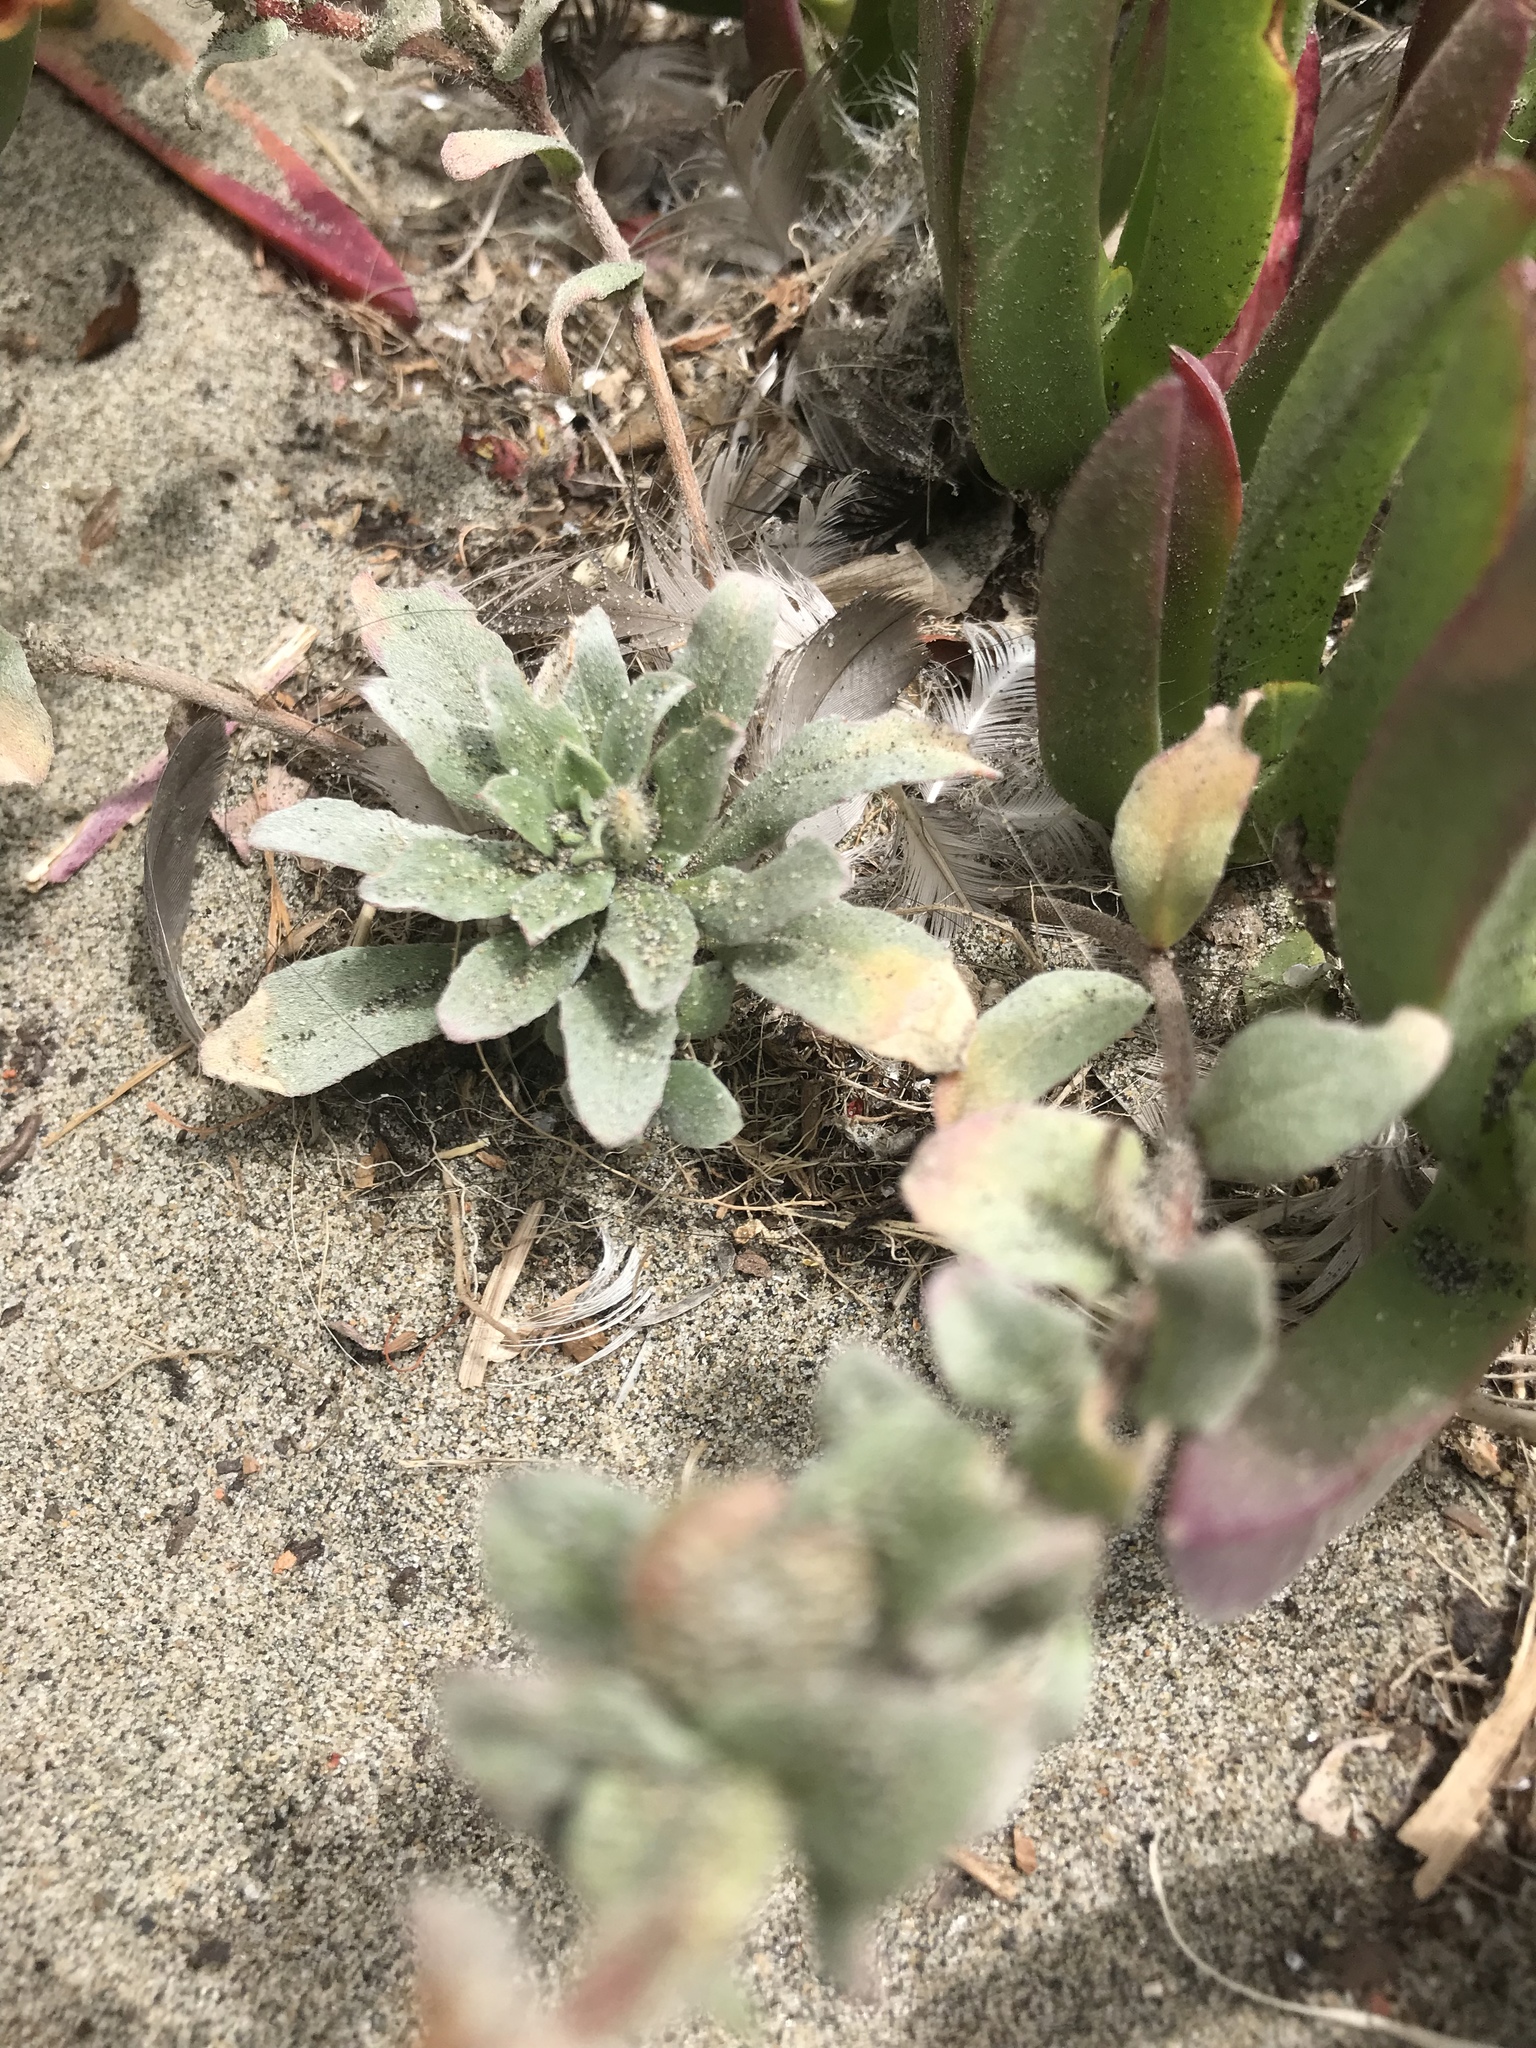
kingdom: Plantae
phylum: Tracheophyta
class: Magnoliopsida
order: Myrtales
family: Onagraceae
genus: Camissoniopsis
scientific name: Camissoniopsis cheiranthifolia
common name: Beach suncup
